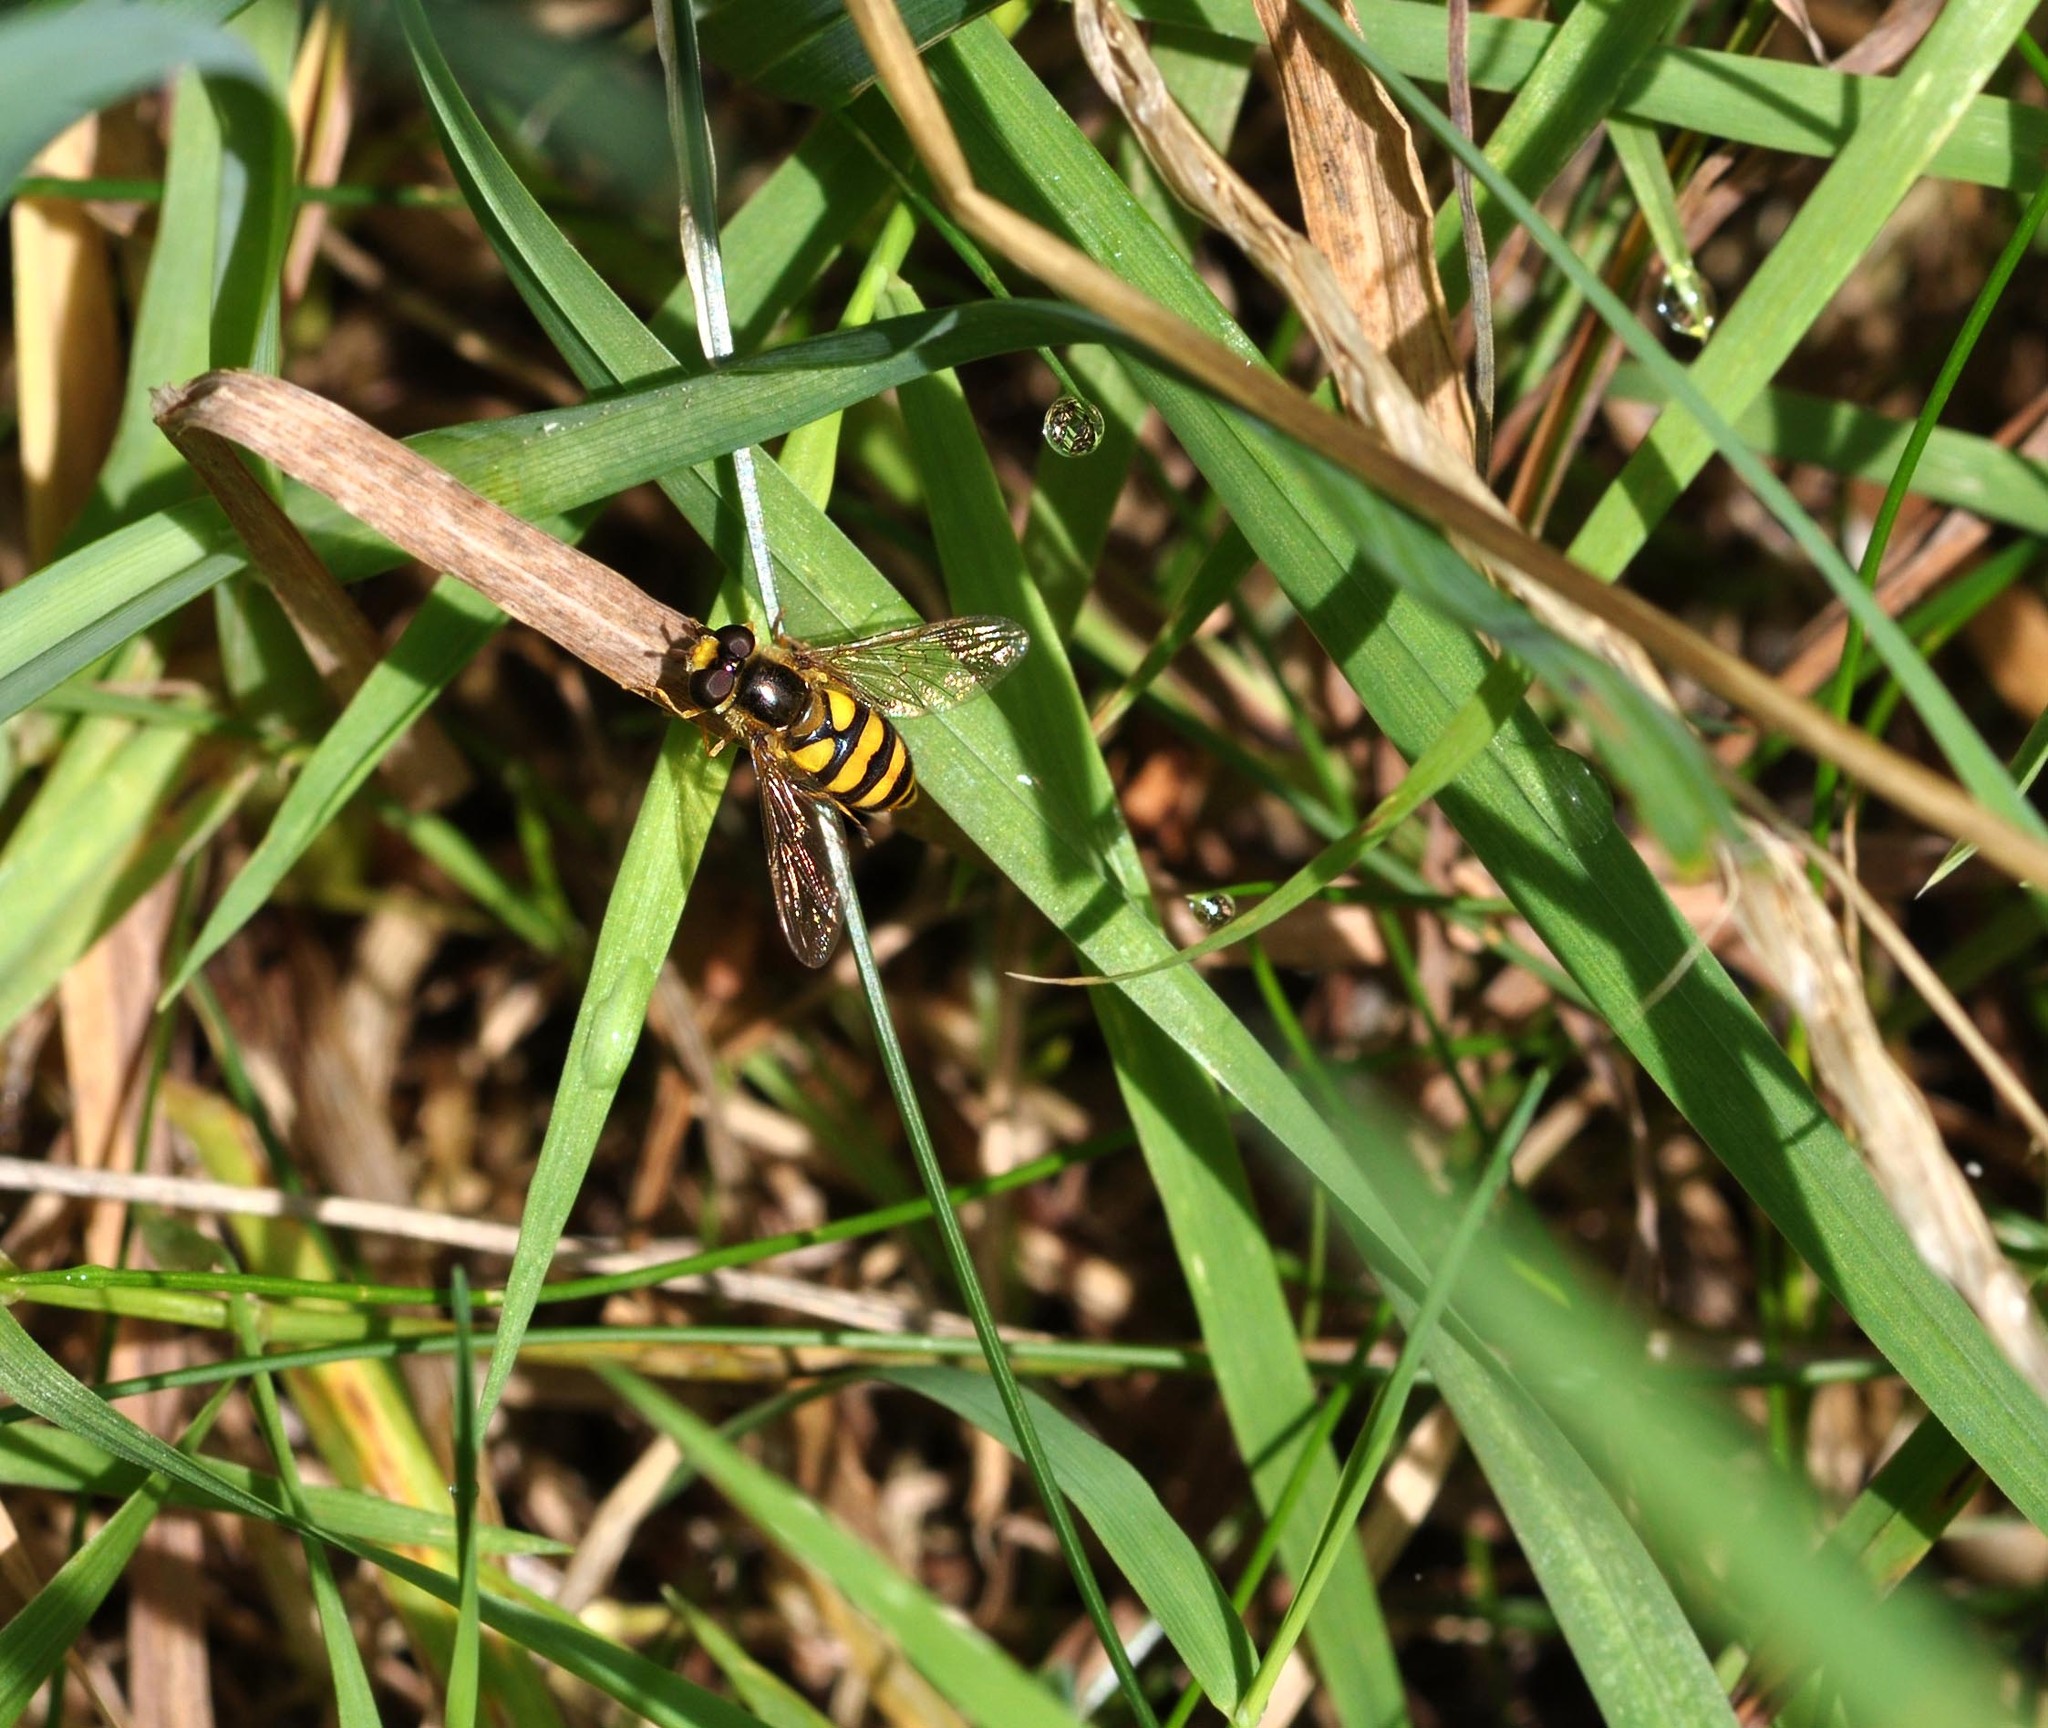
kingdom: Animalia
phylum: Arthropoda
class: Insecta
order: Diptera
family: Syrphidae
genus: Eupeodes
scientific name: Eupeodes latifasciatus
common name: Variable aphideater
